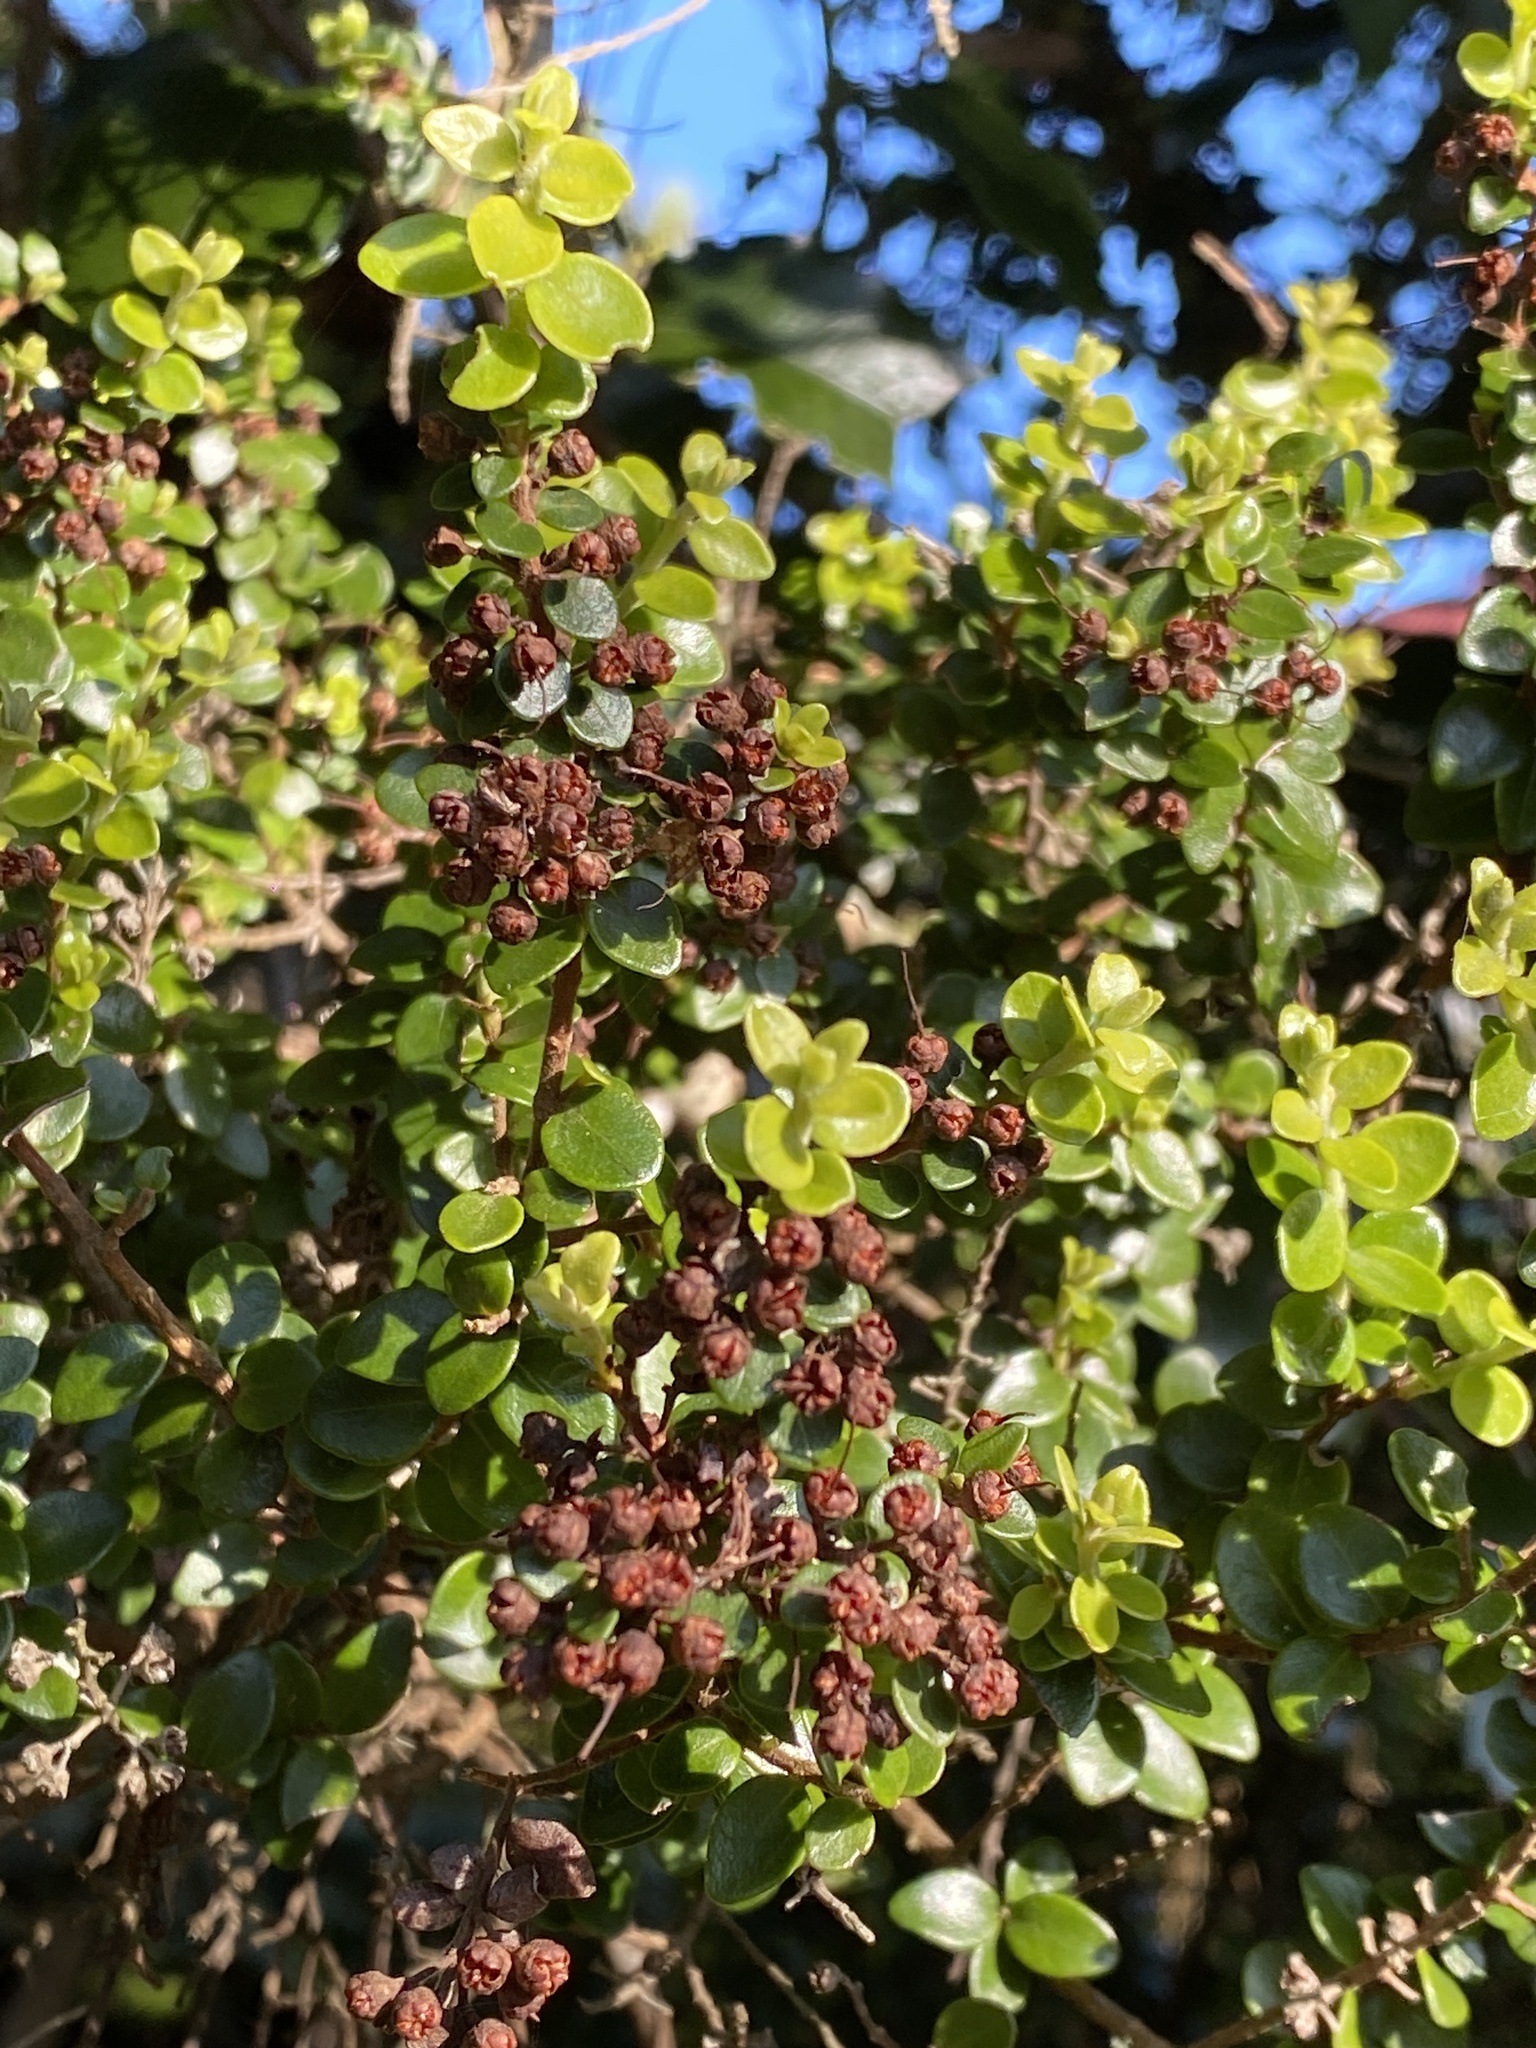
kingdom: Plantae
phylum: Tracheophyta
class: Magnoliopsida
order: Myrtales
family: Myrtaceae
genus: Metrosideros
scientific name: Metrosideros perforata
